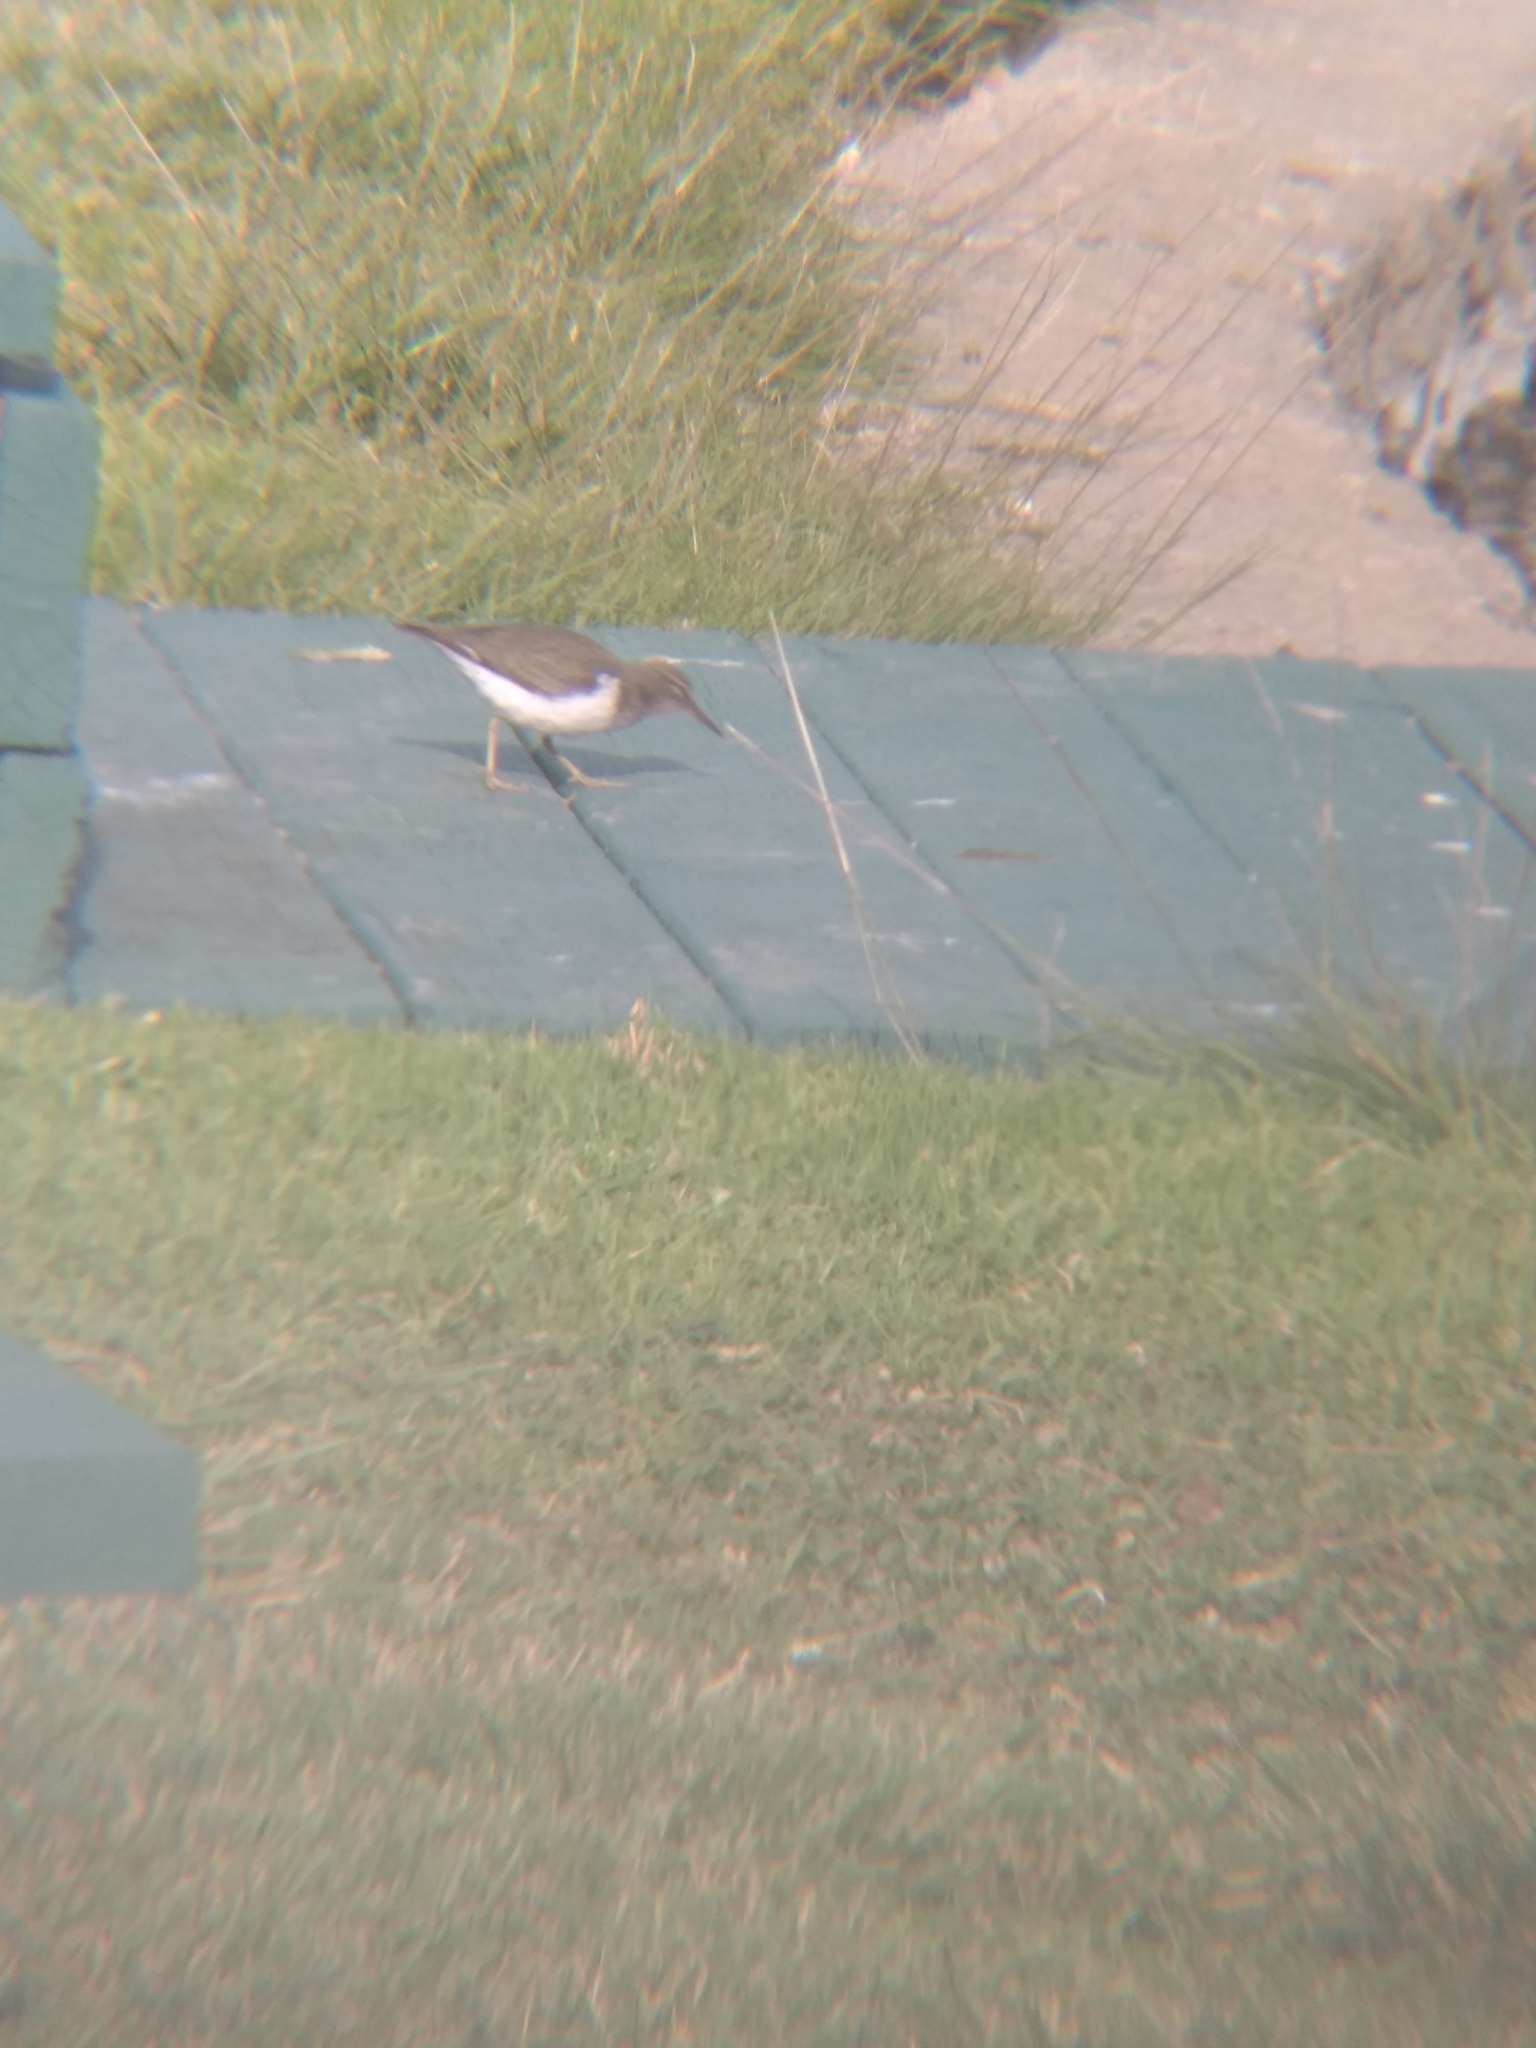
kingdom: Animalia
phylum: Chordata
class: Aves
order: Charadriiformes
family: Scolopacidae
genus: Actitis
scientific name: Actitis macularius
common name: Spotted sandpiper
